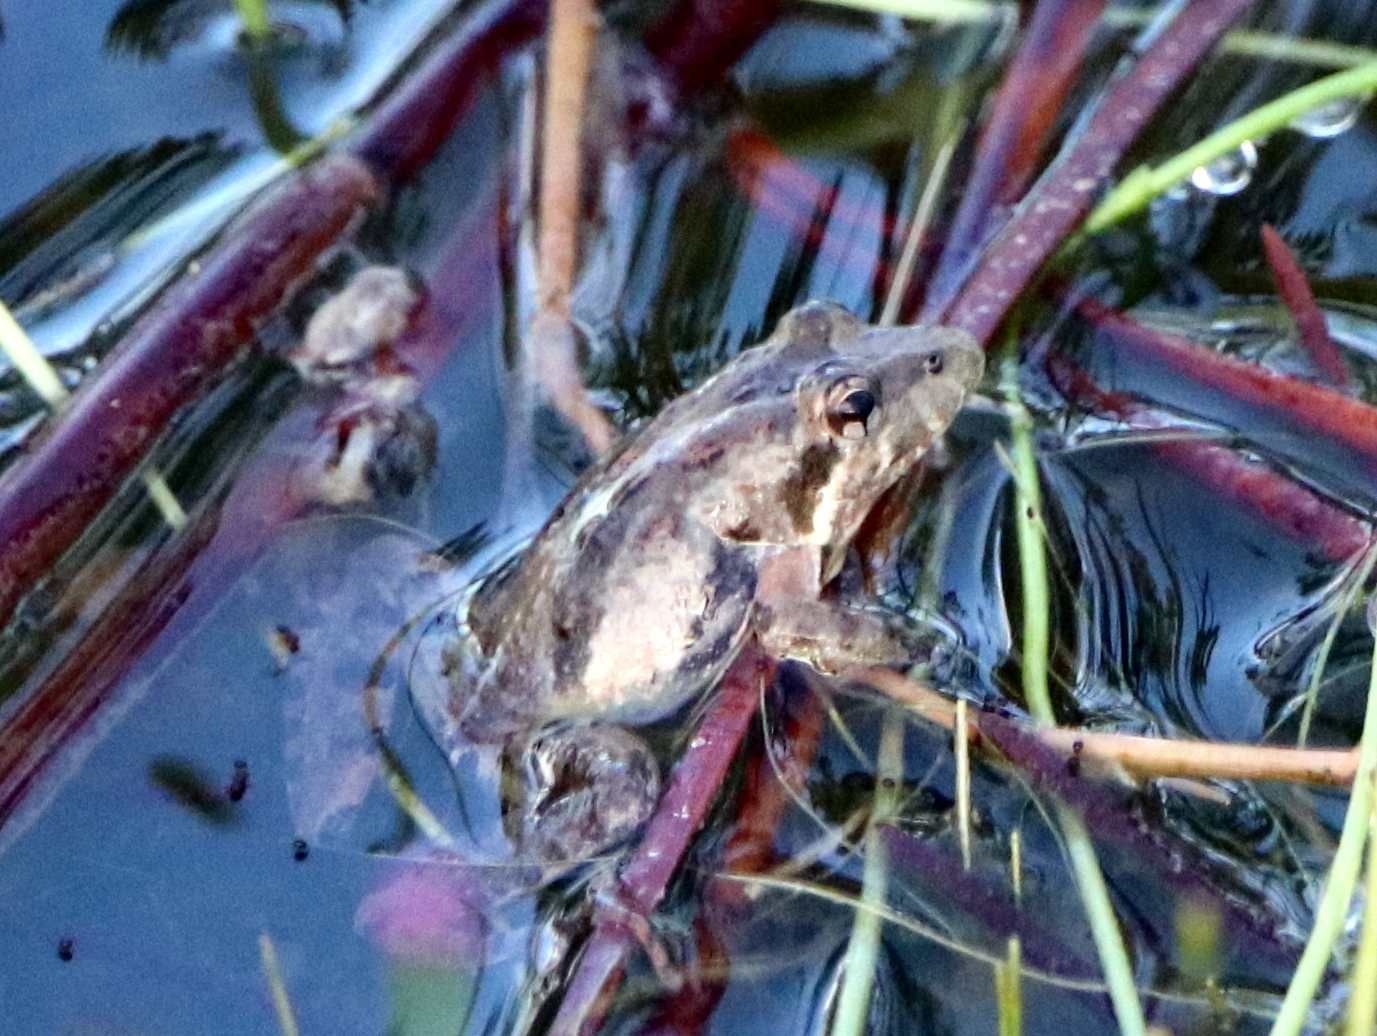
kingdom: Animalia
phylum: Chordata
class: Amphibia
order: Anura
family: Hylidae
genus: Acris
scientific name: Acris gryllus
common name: Southern cricket frog
